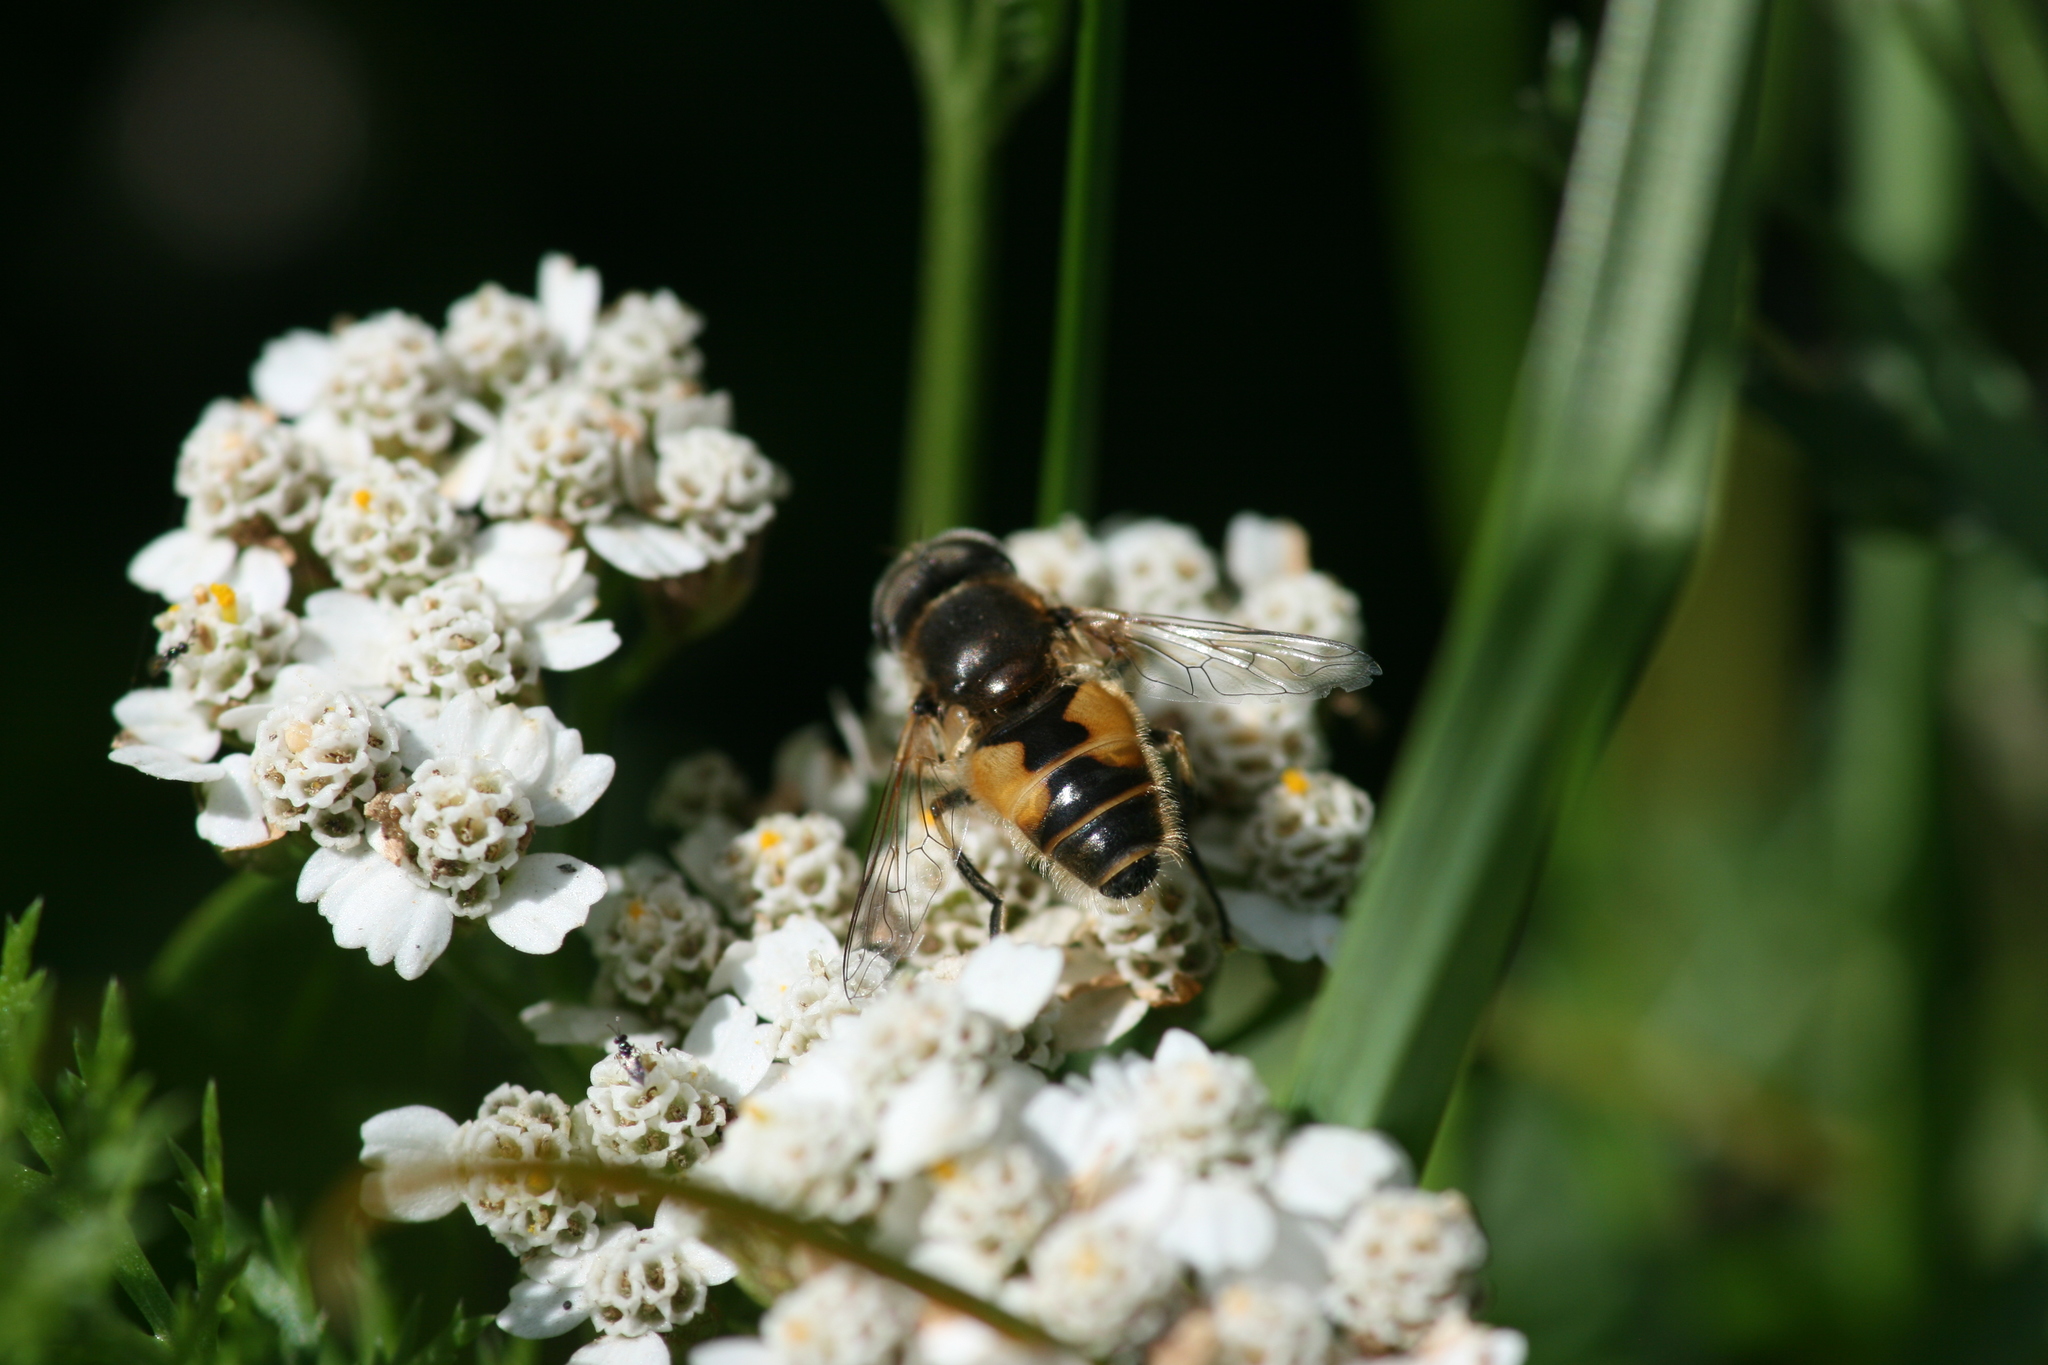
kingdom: Animalia
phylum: Arthropoda
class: Insecta
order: Diptera
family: Syrphidae
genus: Eristalis
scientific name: Eristalis arbustorum
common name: Hover fly
